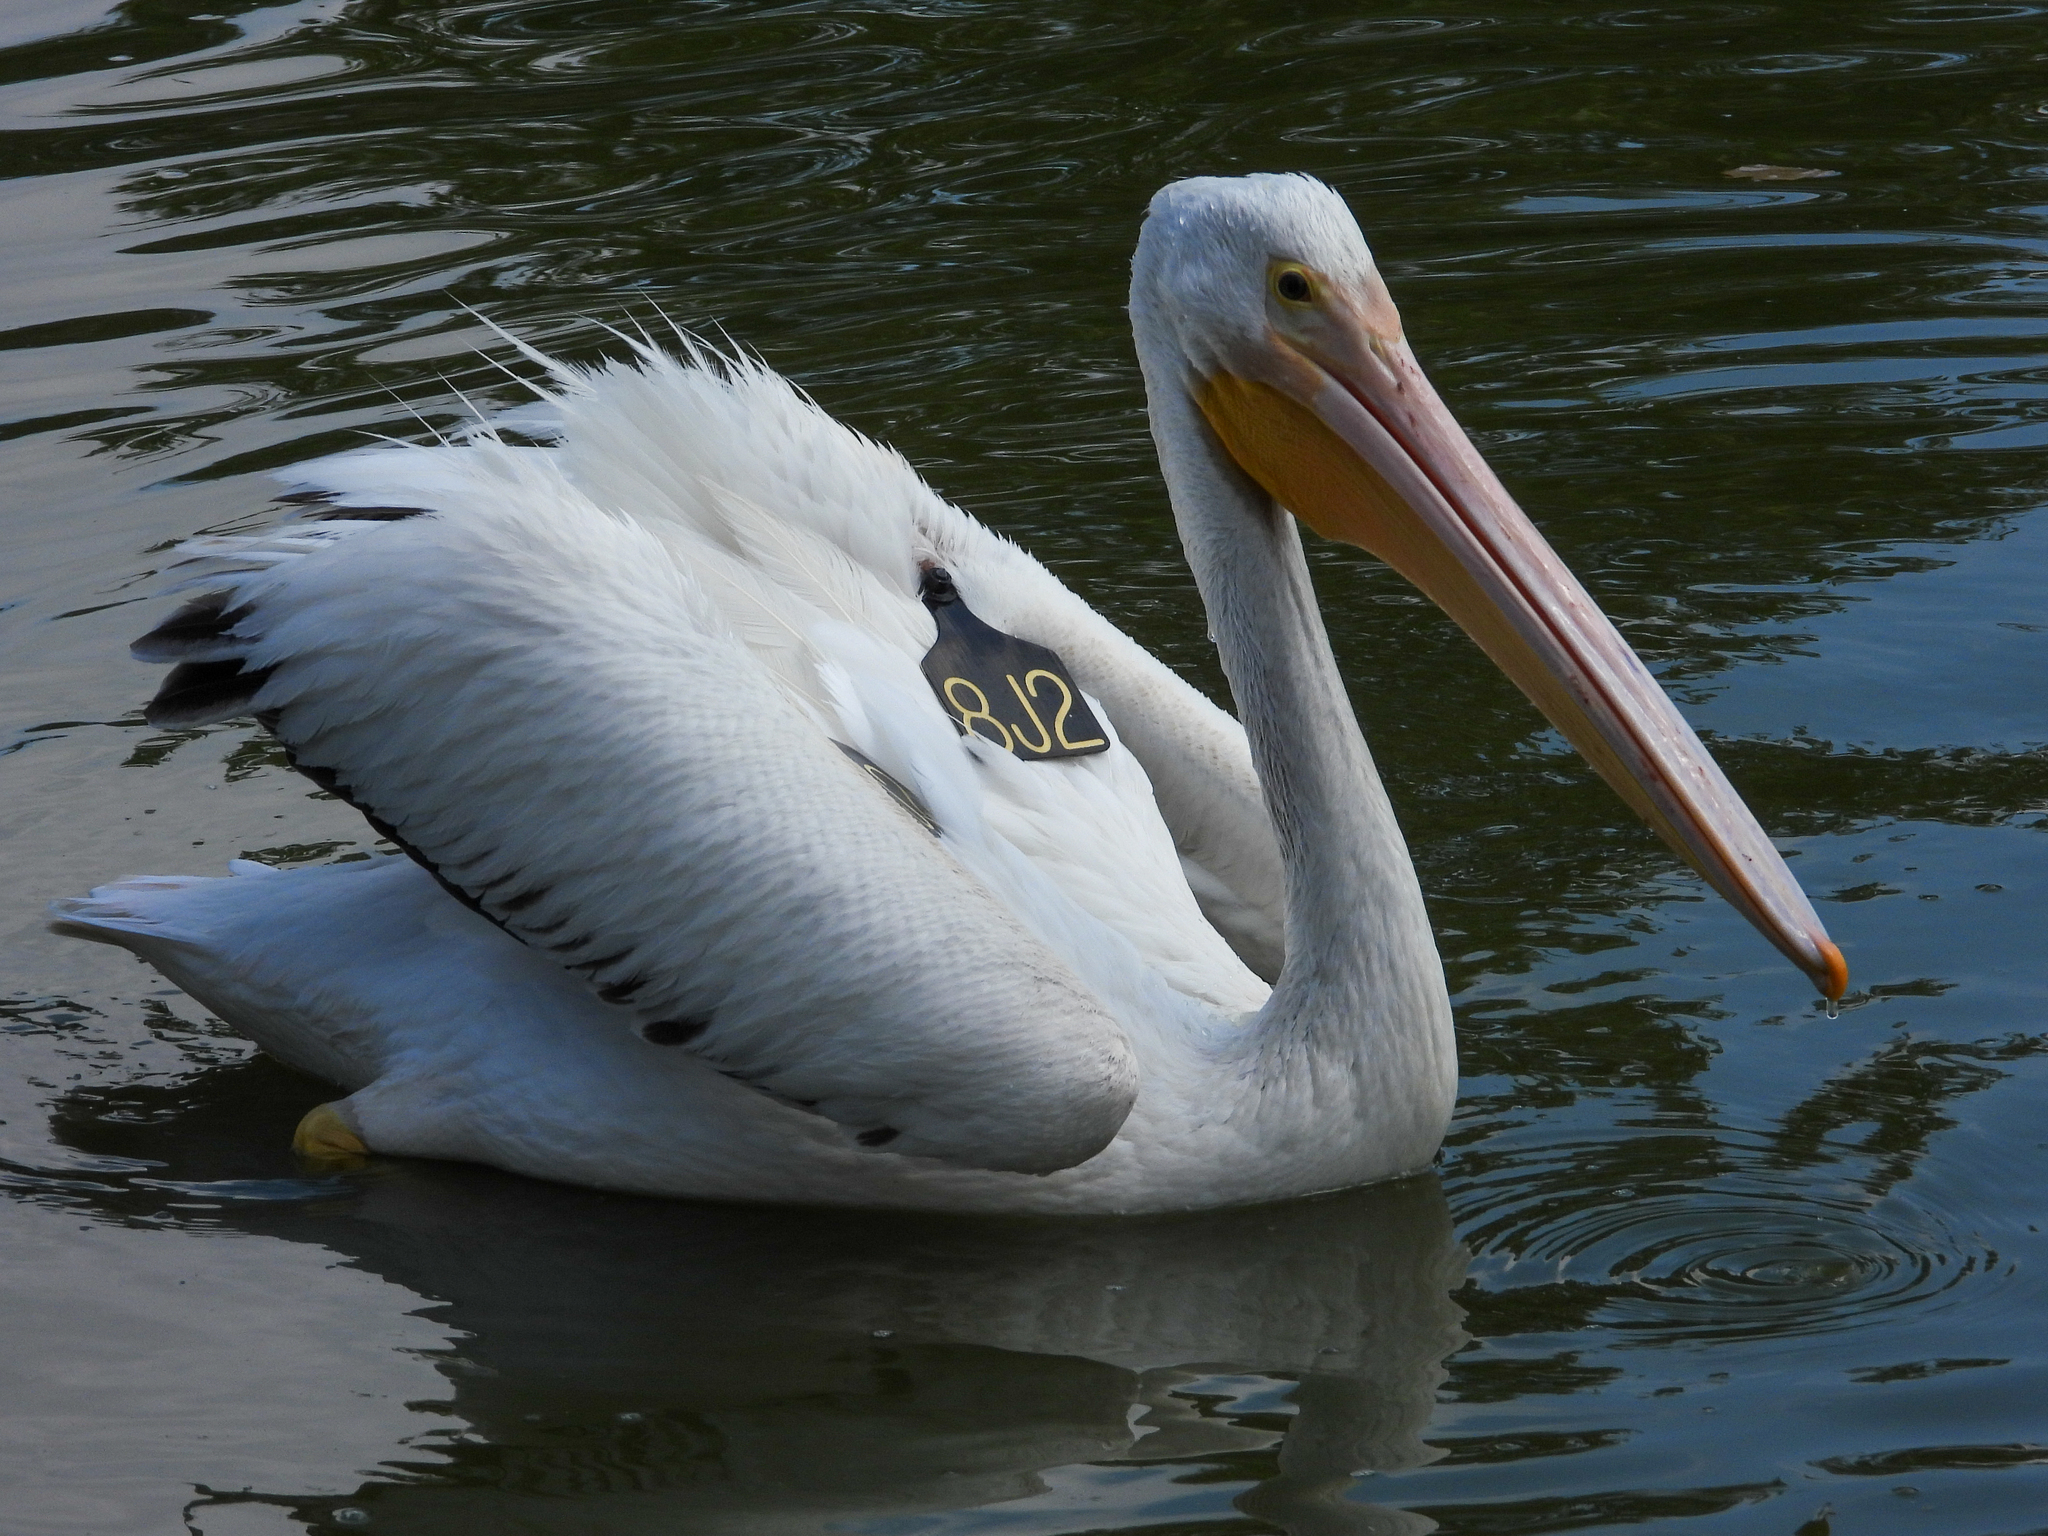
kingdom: Animalia
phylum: Chordata
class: Aves
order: Pelecaniformes
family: Pelecanidae
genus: Pelecanus
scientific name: Pelecanus erythrorhynchos
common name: American white pelican
